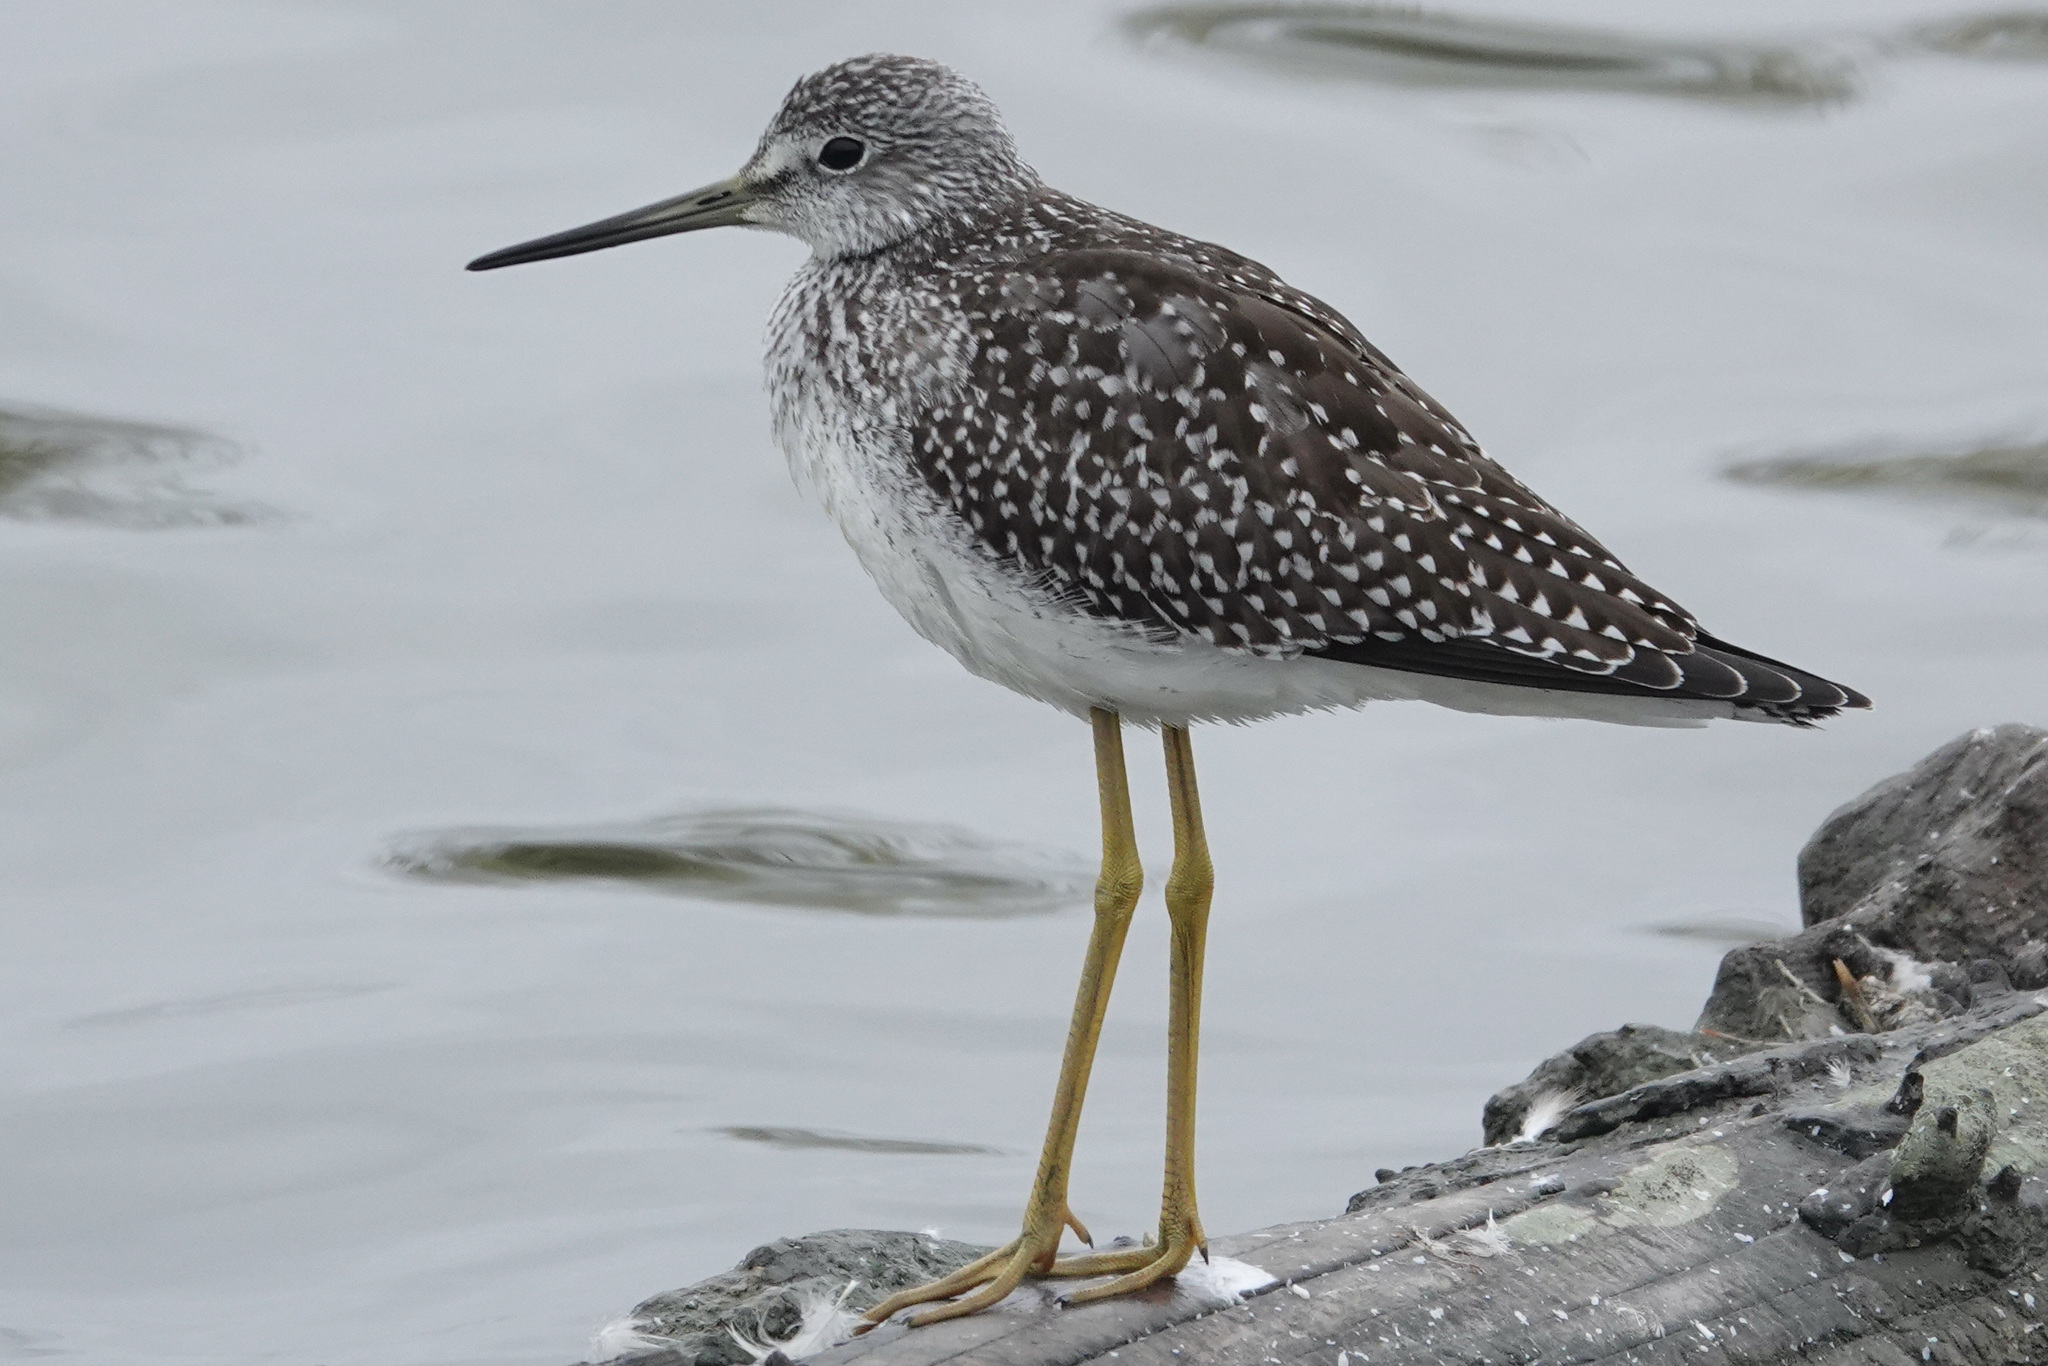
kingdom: Animalia
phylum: Chordata
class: Aves
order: Charadriiformes
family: Scolopacidae
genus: Tringa
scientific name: Tringa melanoleuca
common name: Greater yellowlegs
